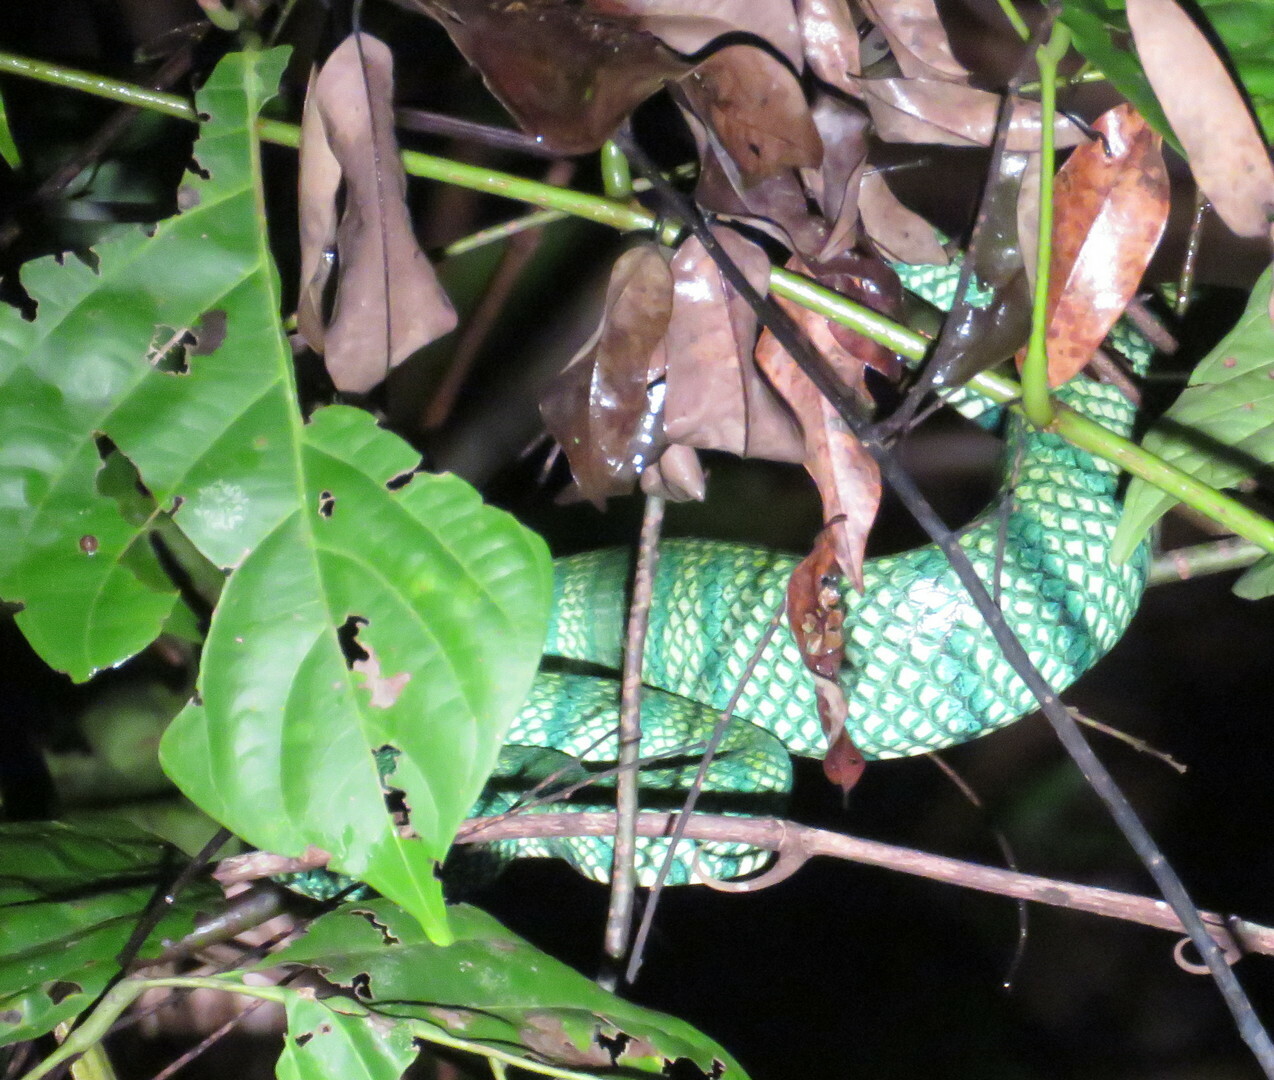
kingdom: Animalia
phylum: Chordata
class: Squamata
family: Viperidae
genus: Tropidolaemus
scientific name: Tropidolaemus subannulatus
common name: North philippine temple pitviper
